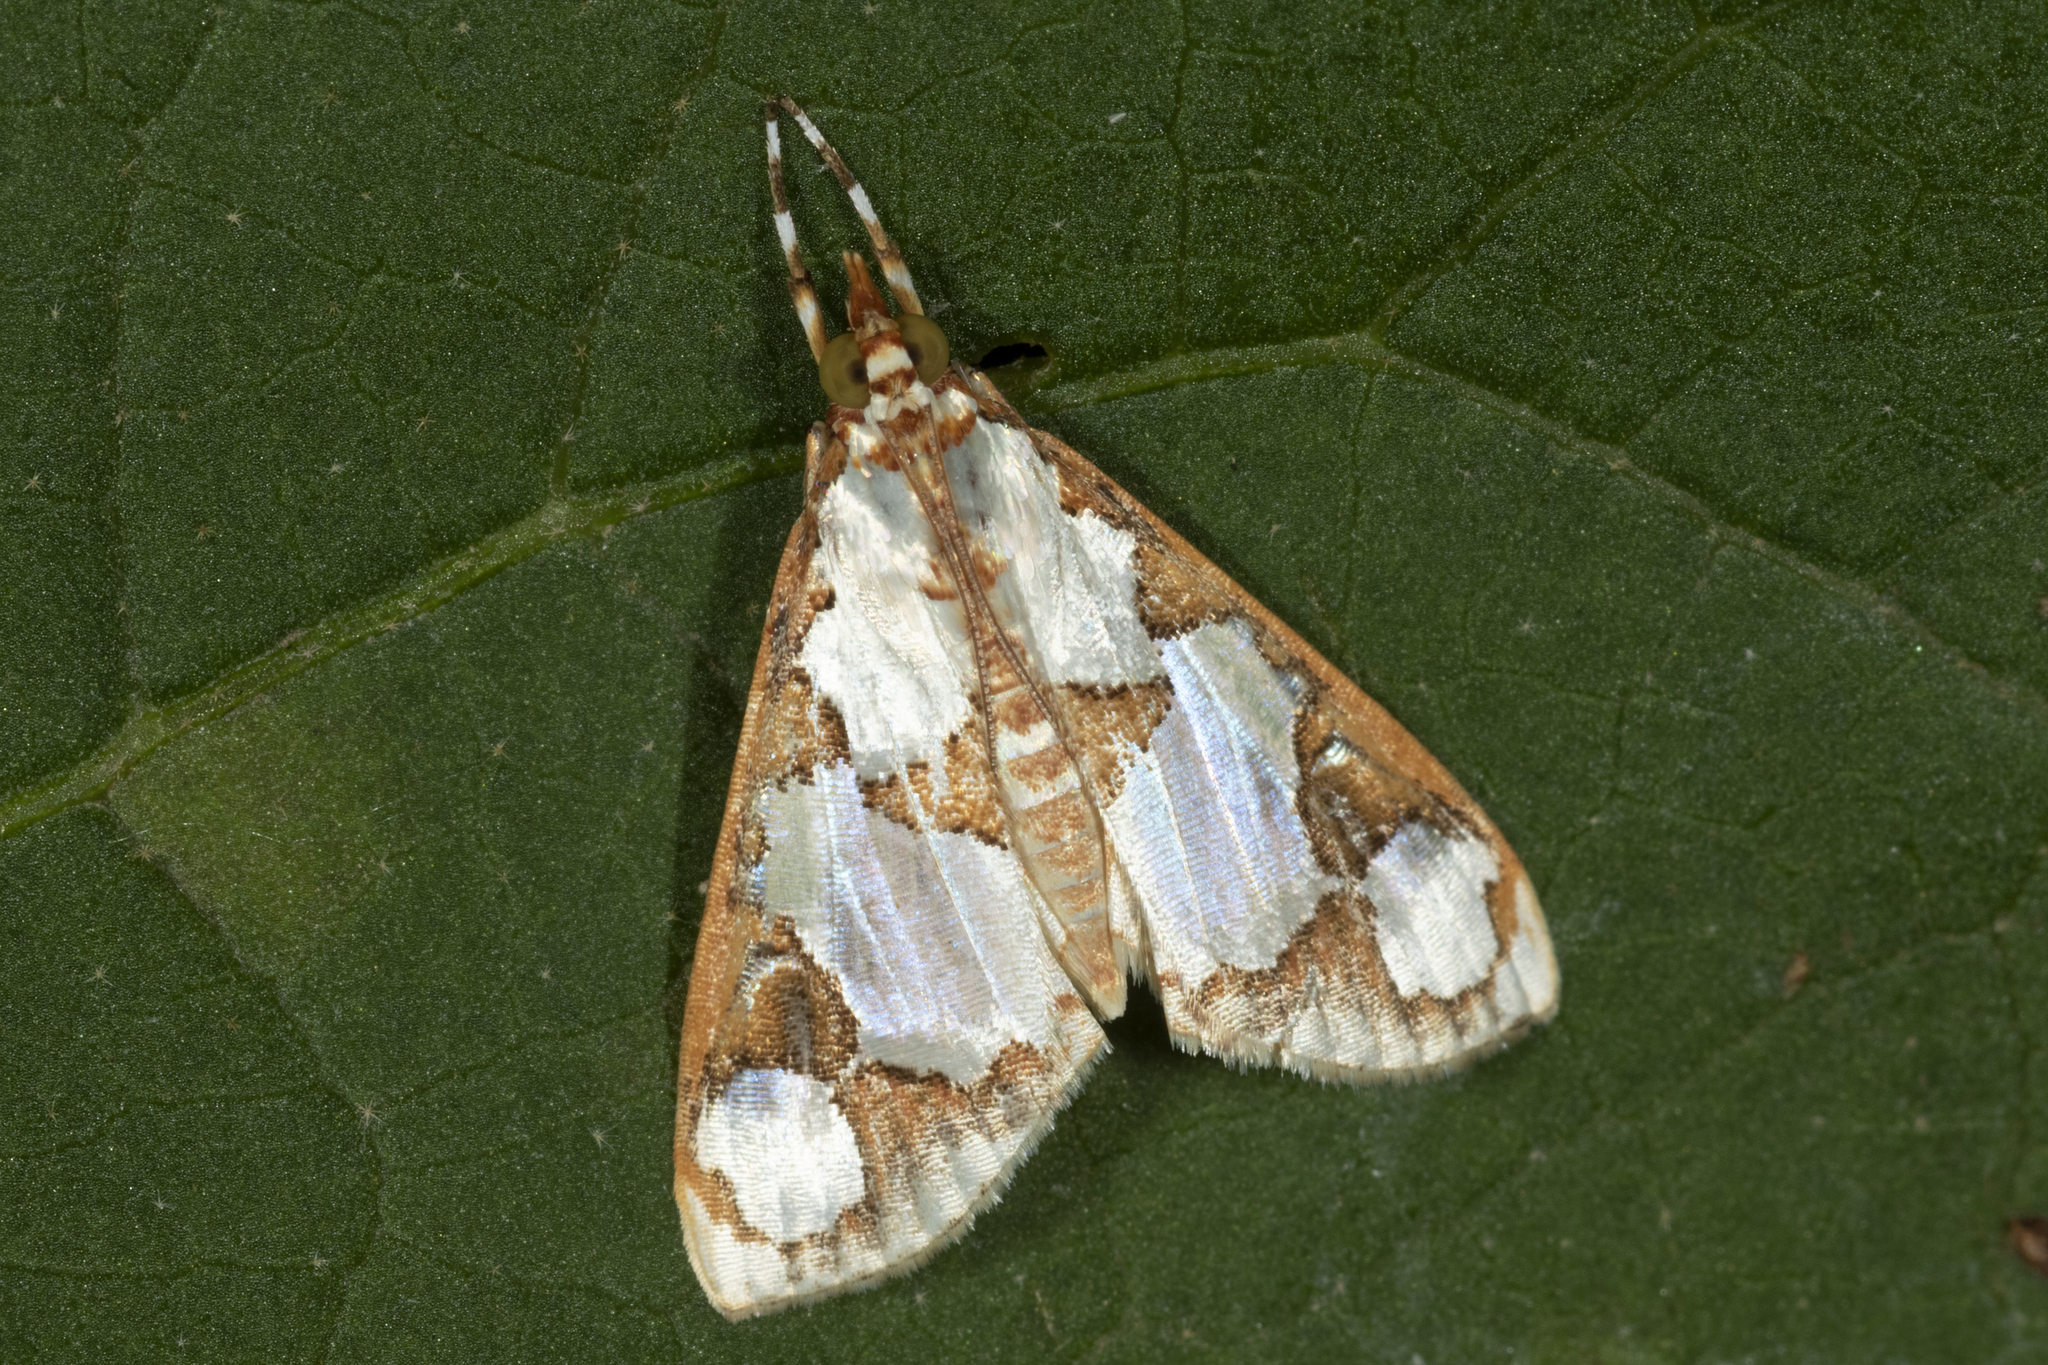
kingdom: Animalia
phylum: Arthropoda
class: Insecta
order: Lepidoptera
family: Crambidae
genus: Argyrarcha
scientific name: Argyrarcha margarita
